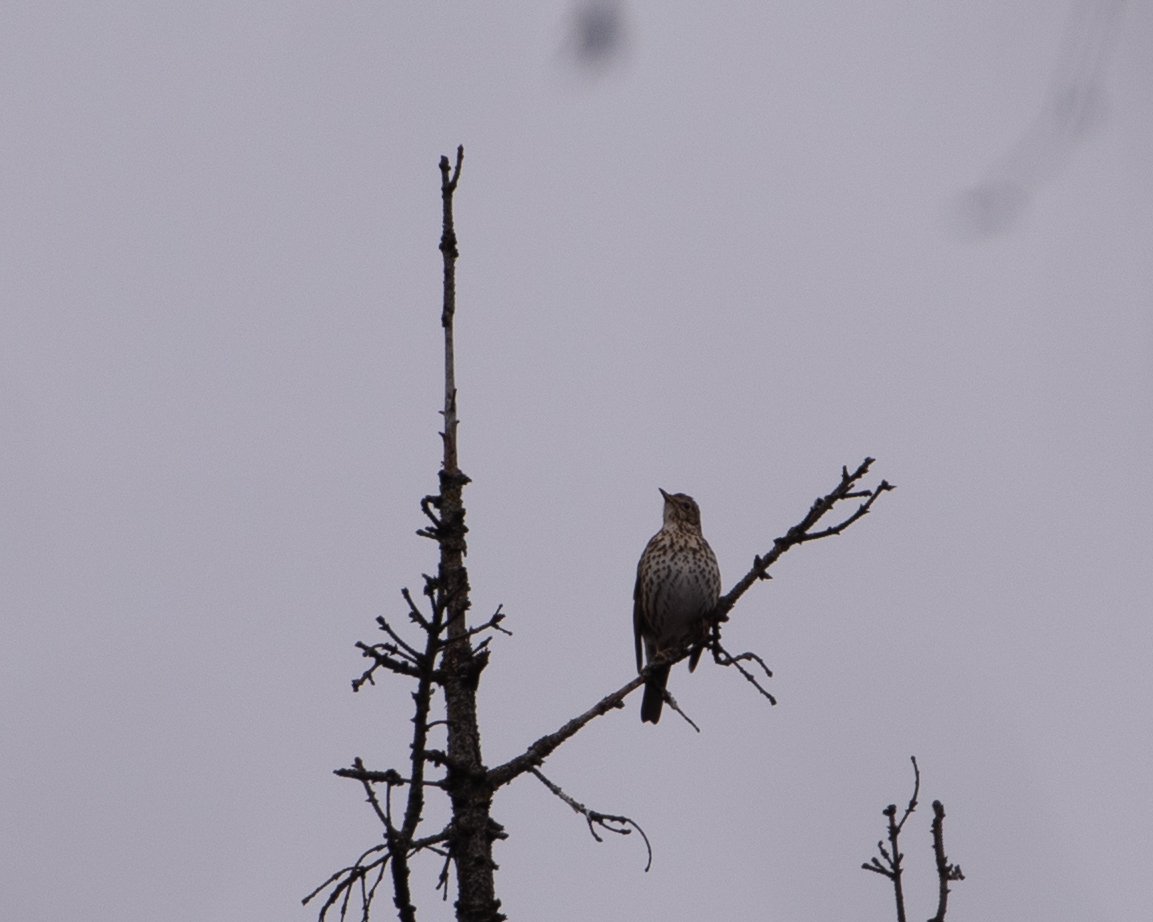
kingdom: Animalia
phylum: Chordata
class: Aves
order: Passeriformes
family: Turdidae
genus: Turdus
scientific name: Turdus philomelos
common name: Song thrush
